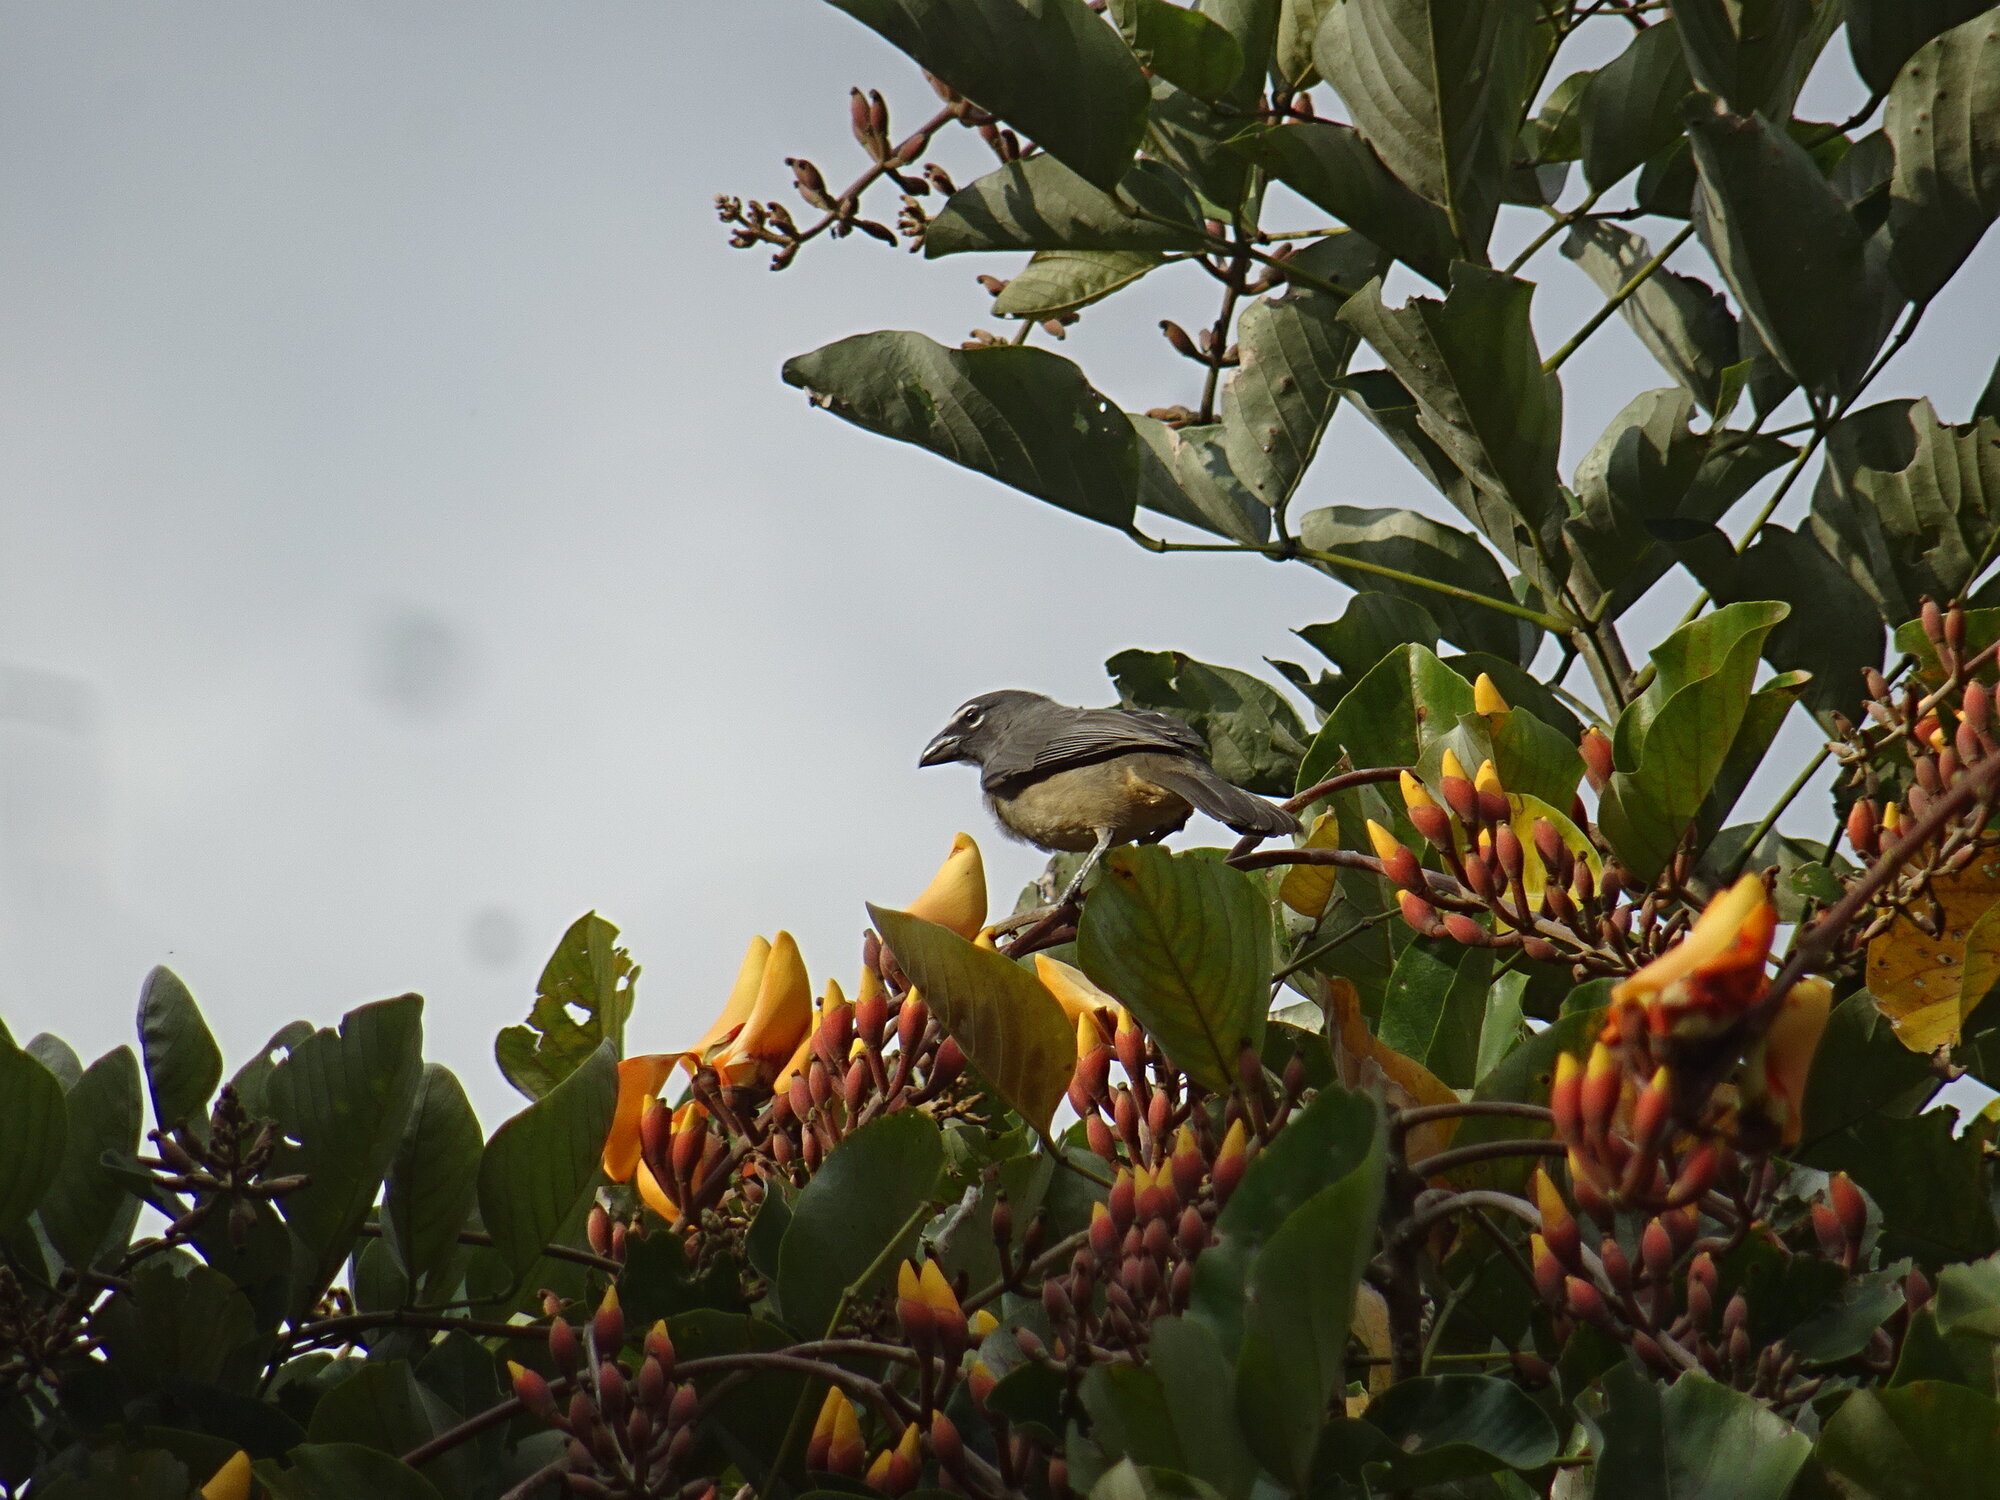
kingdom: Animalia
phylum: Chordata
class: Aves
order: Passeriformes
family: Thraupidae
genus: Saltator
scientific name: Saltator olivascens
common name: Caribbean grey saltator
